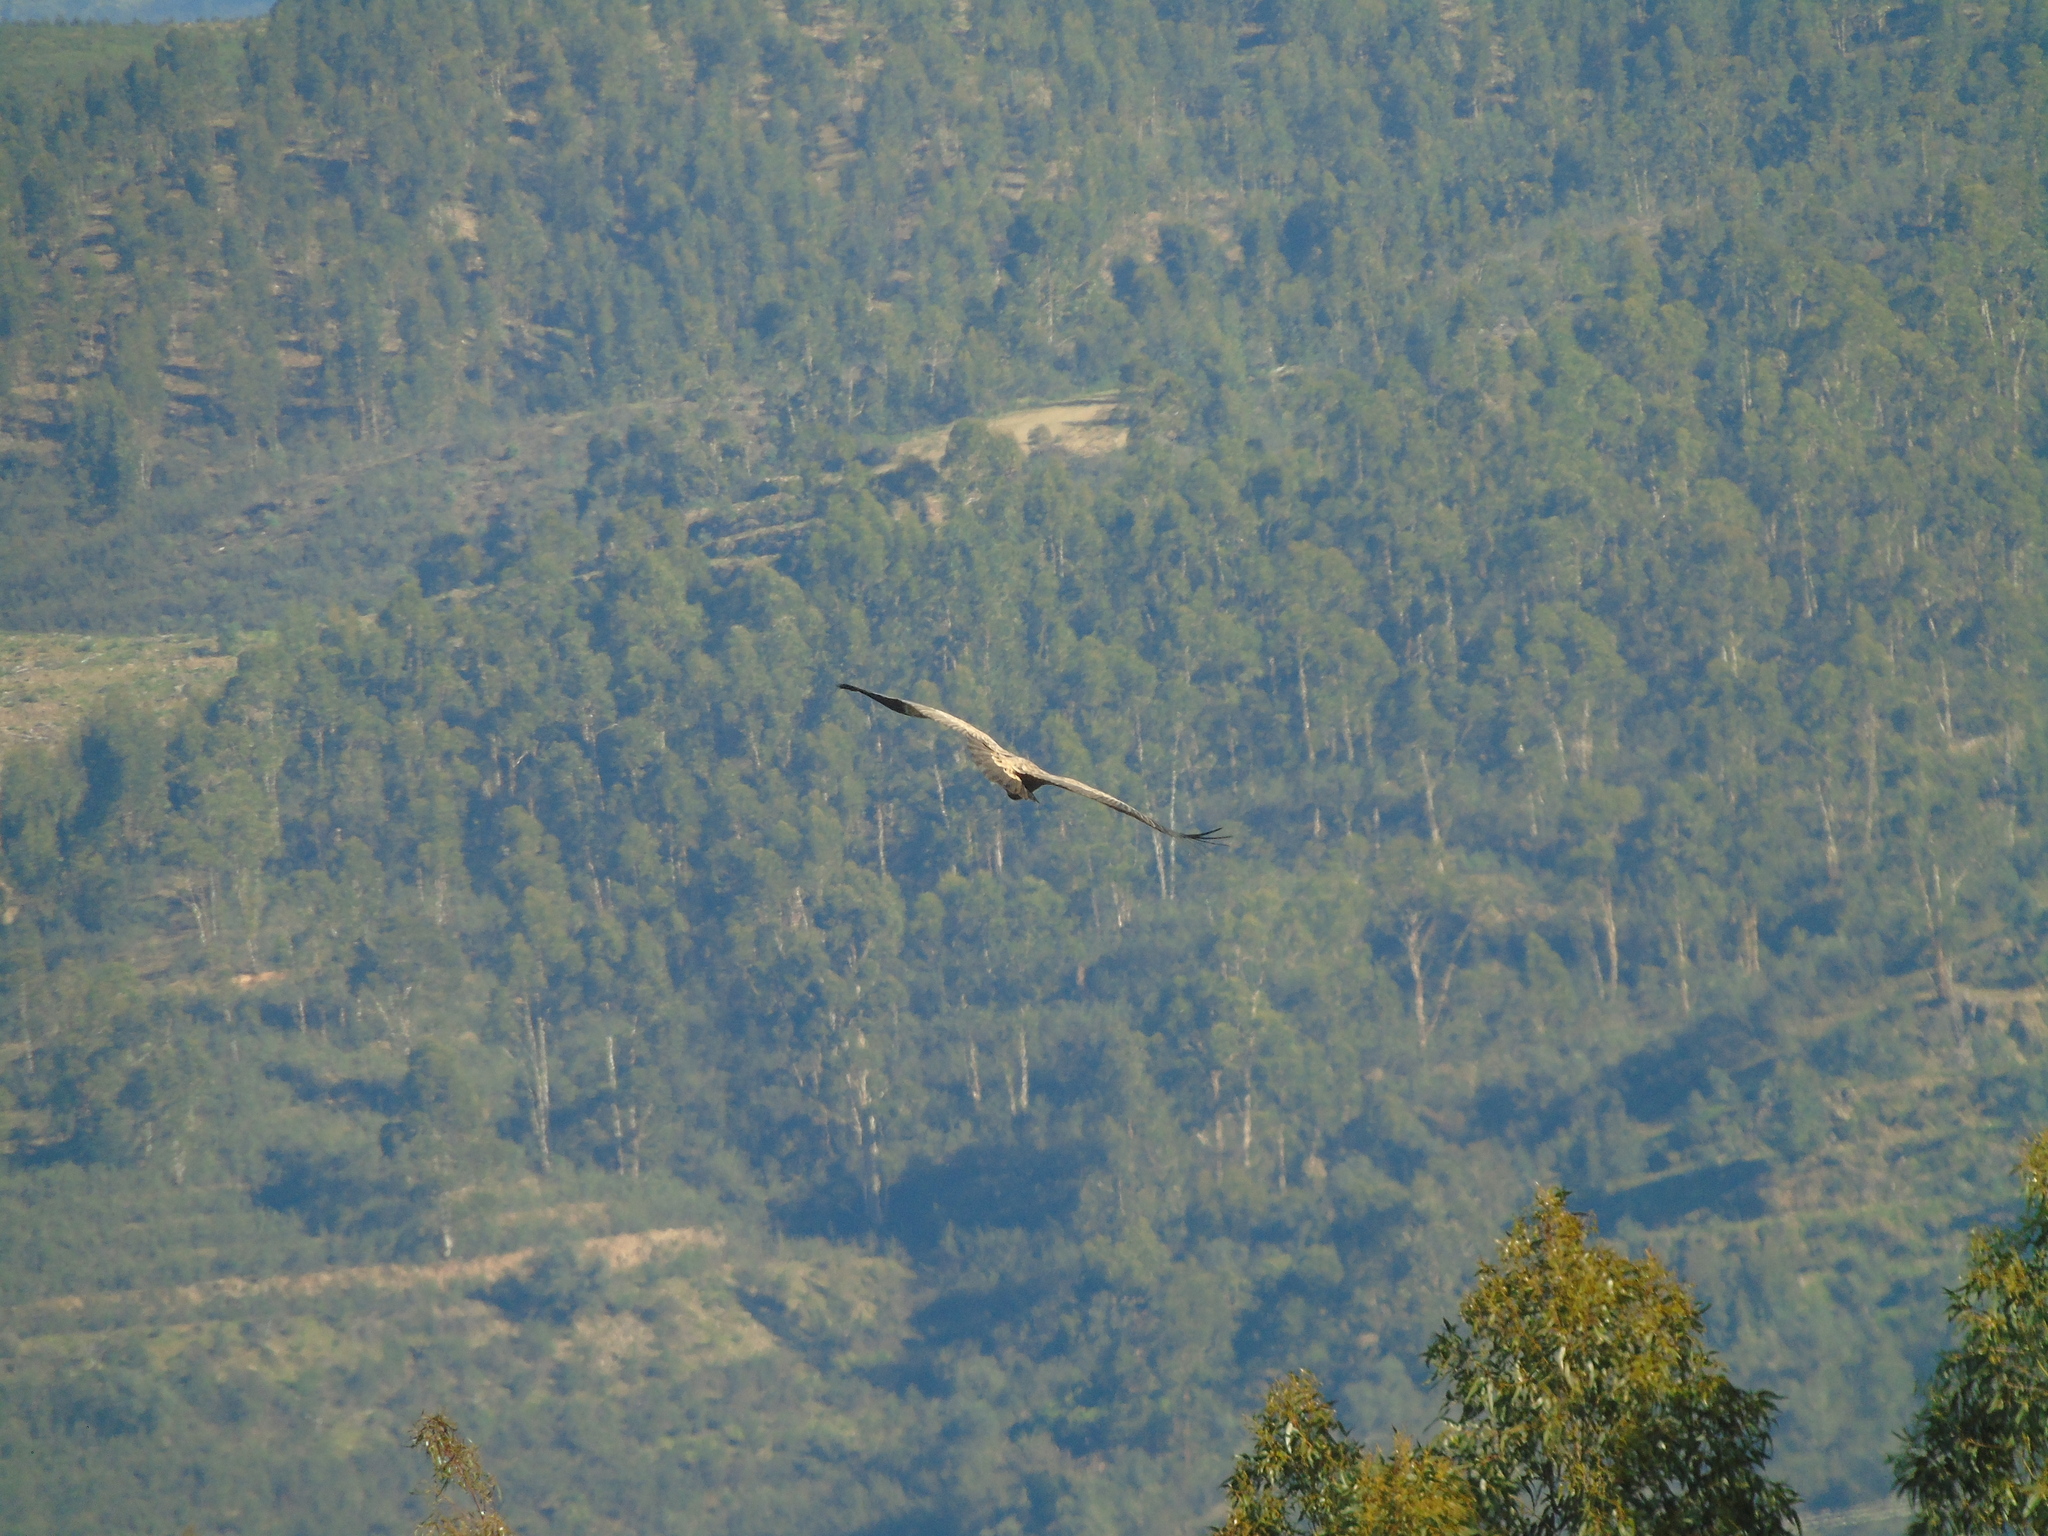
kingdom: Animalia
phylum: Chordata
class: Aves
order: Accipitriformes
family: Accipitridae
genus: Gyps
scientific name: Gyps fulvus
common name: Griffon vulture
